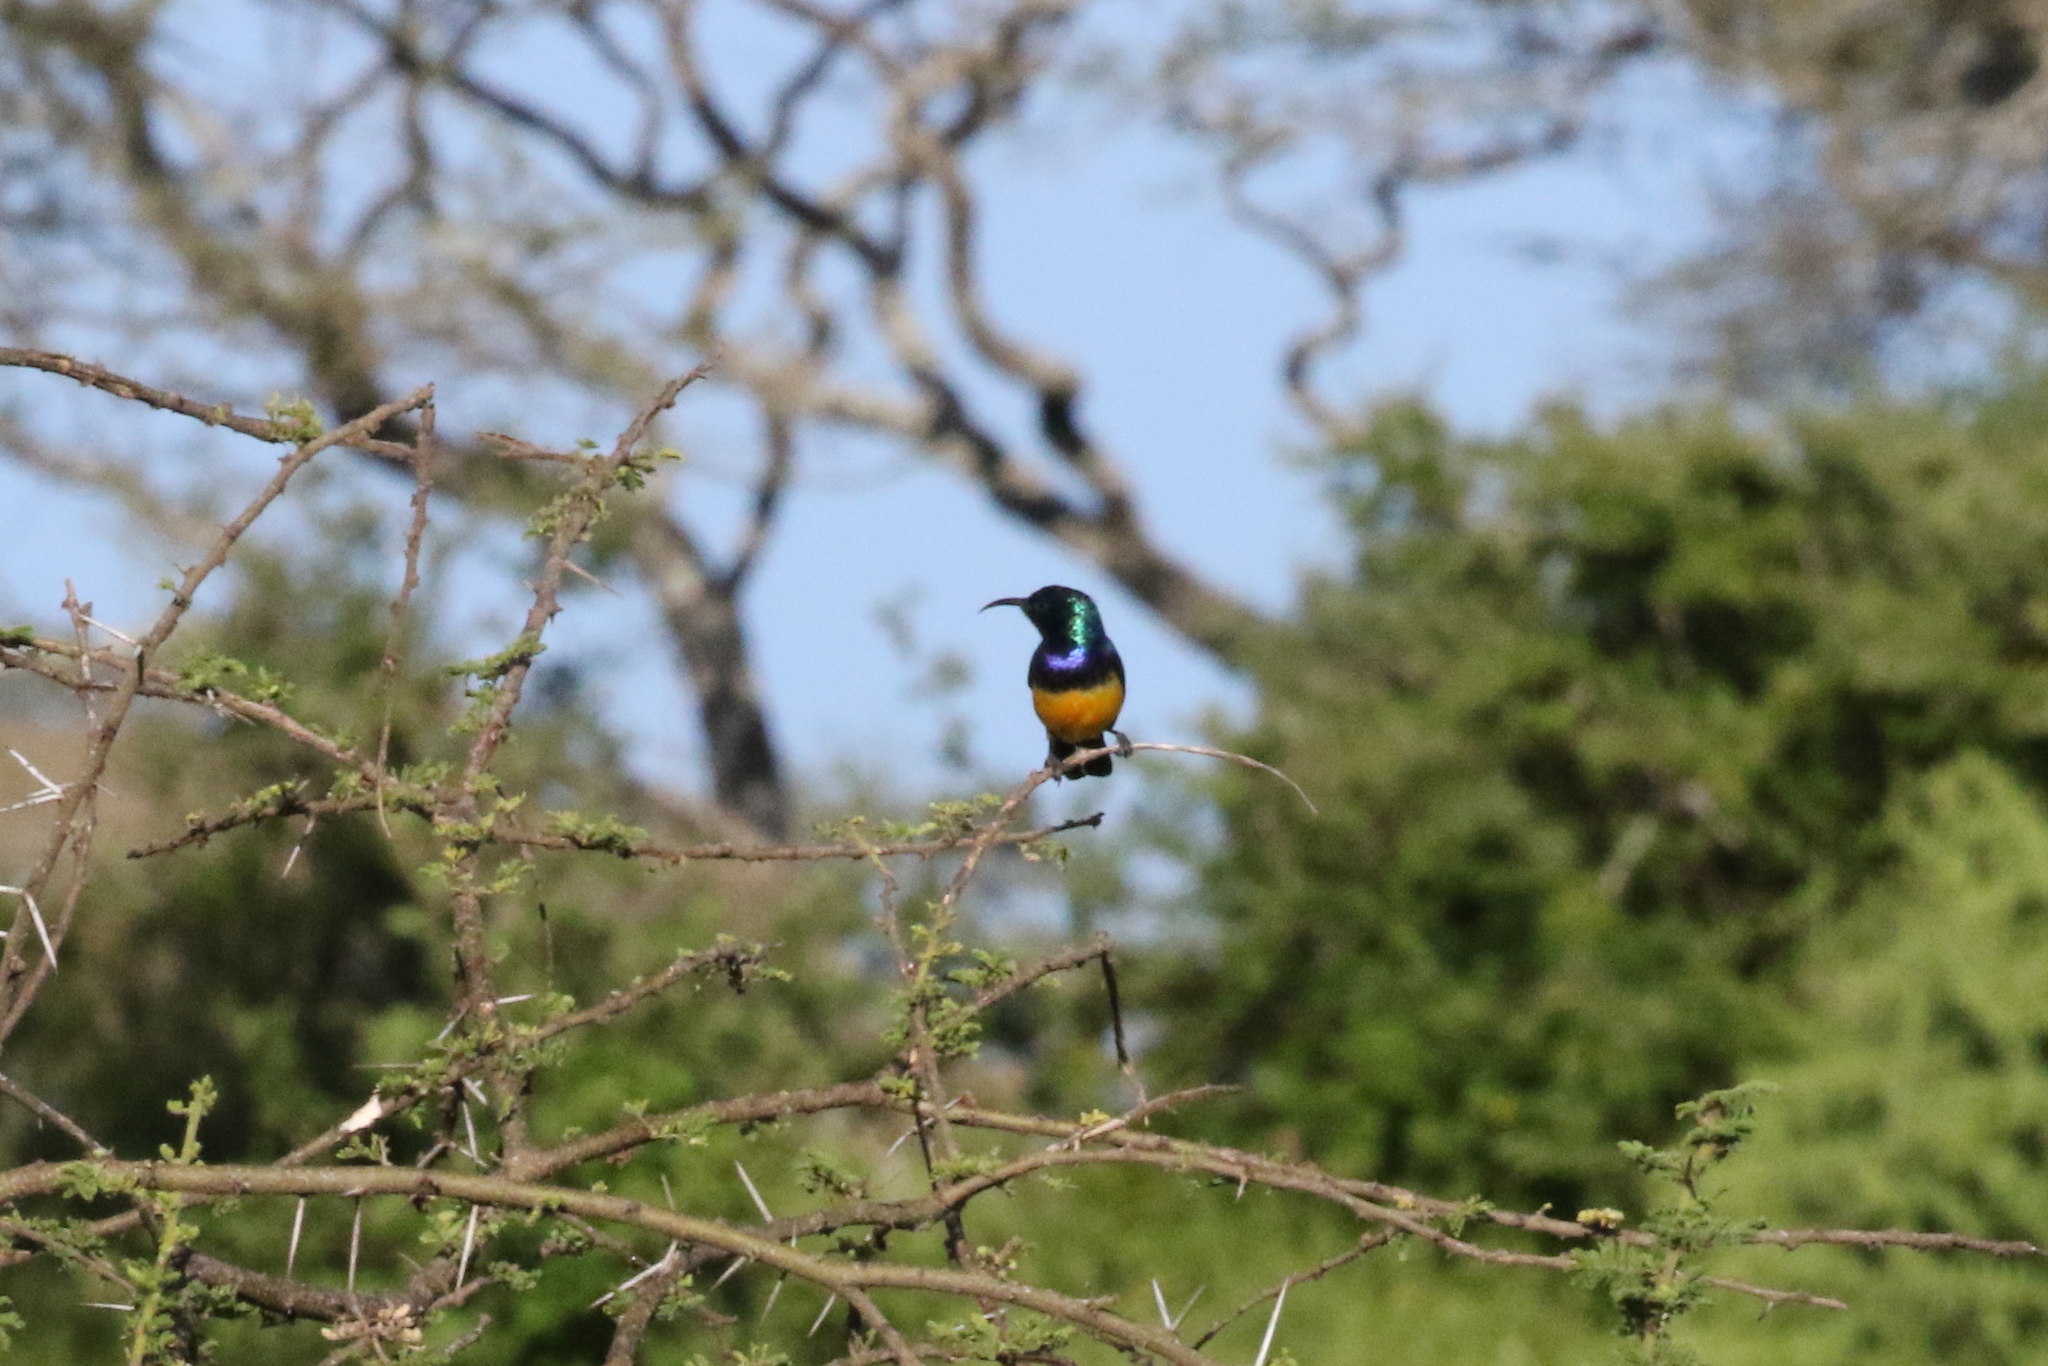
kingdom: Animalia
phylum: Chordata
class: Aves
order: Passeriformes
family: Nectariniidae
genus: Cinnyris
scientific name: Cinnyris venustus
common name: Variable sunbird
